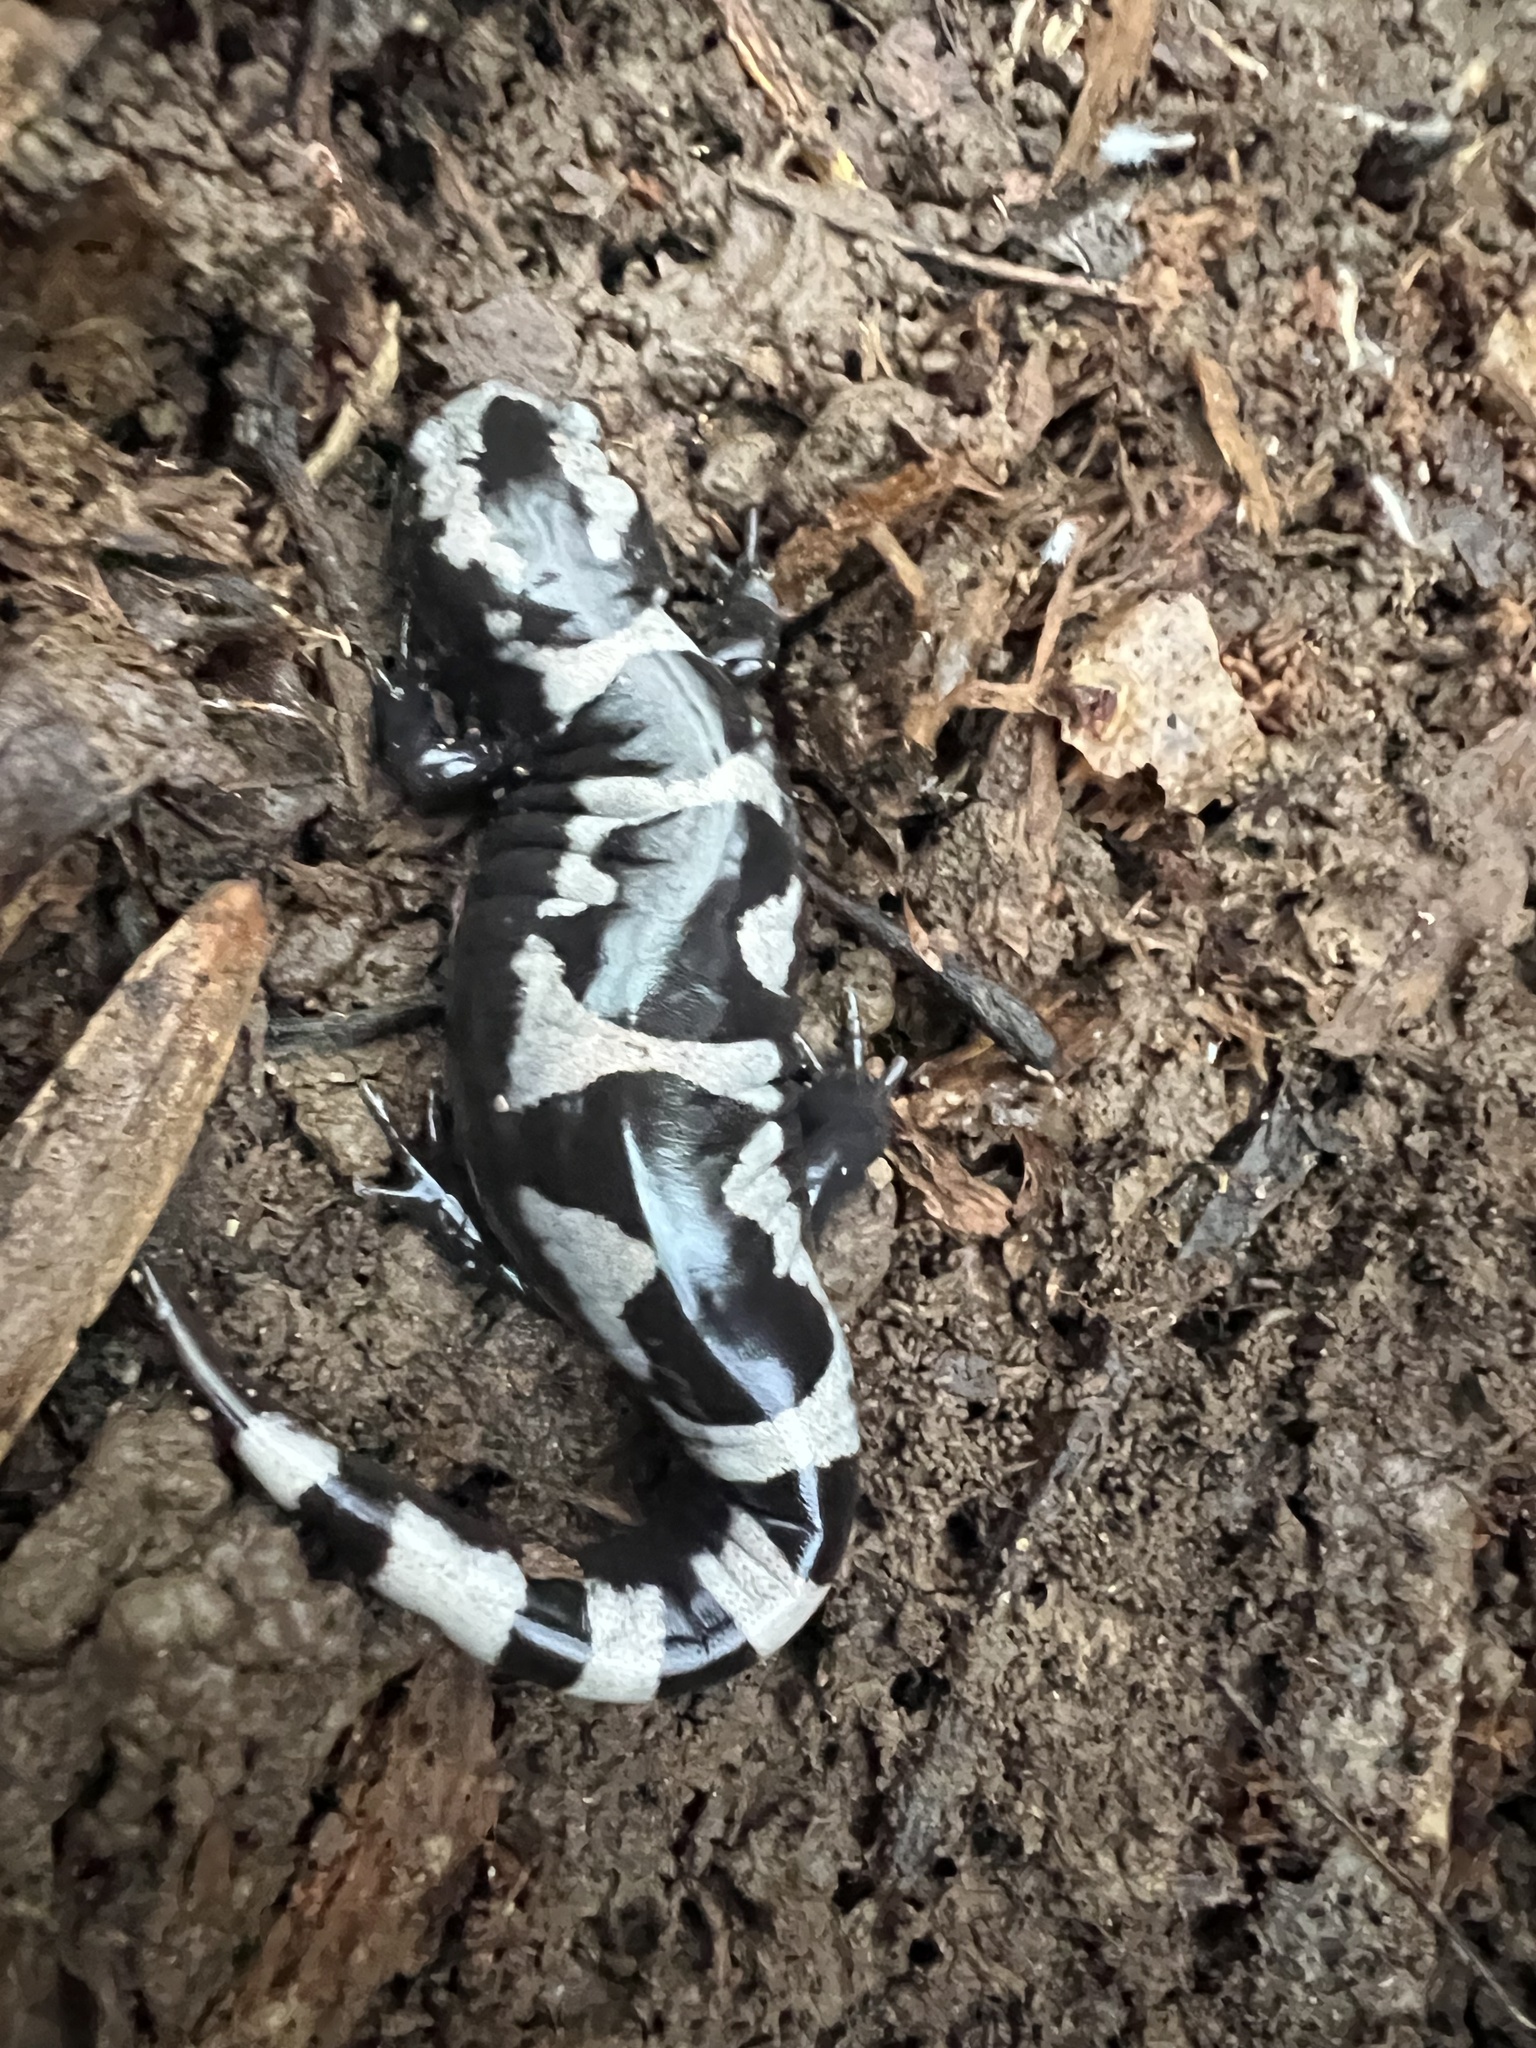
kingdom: Animalia
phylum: Chordata
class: Amphibia
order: Caudata
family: Ambystomatidae
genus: Ambystoma
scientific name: Ambystoma opacum
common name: Marbled salamander
